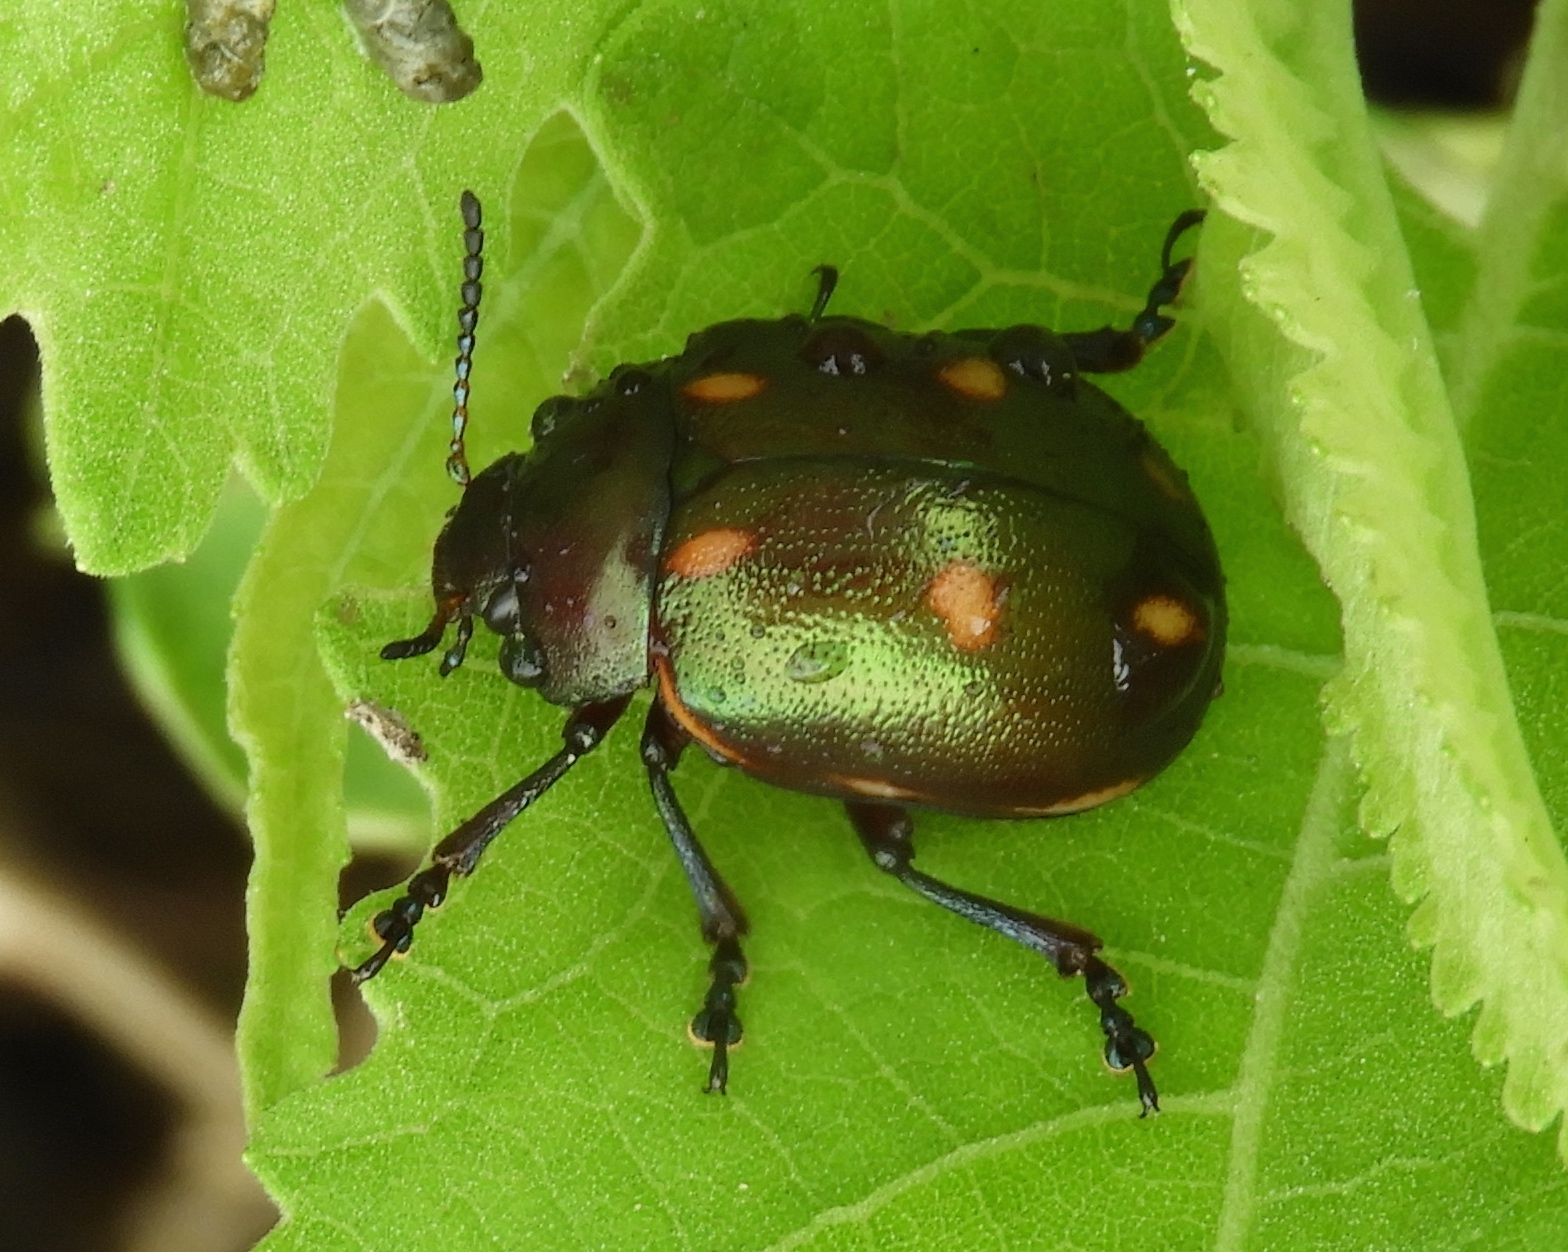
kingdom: Animalia
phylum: Arthropoda
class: Insecta
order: Coleoptera
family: Chrysomelidae
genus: Leptinotarsa
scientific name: Leptinotarsa behrensi
